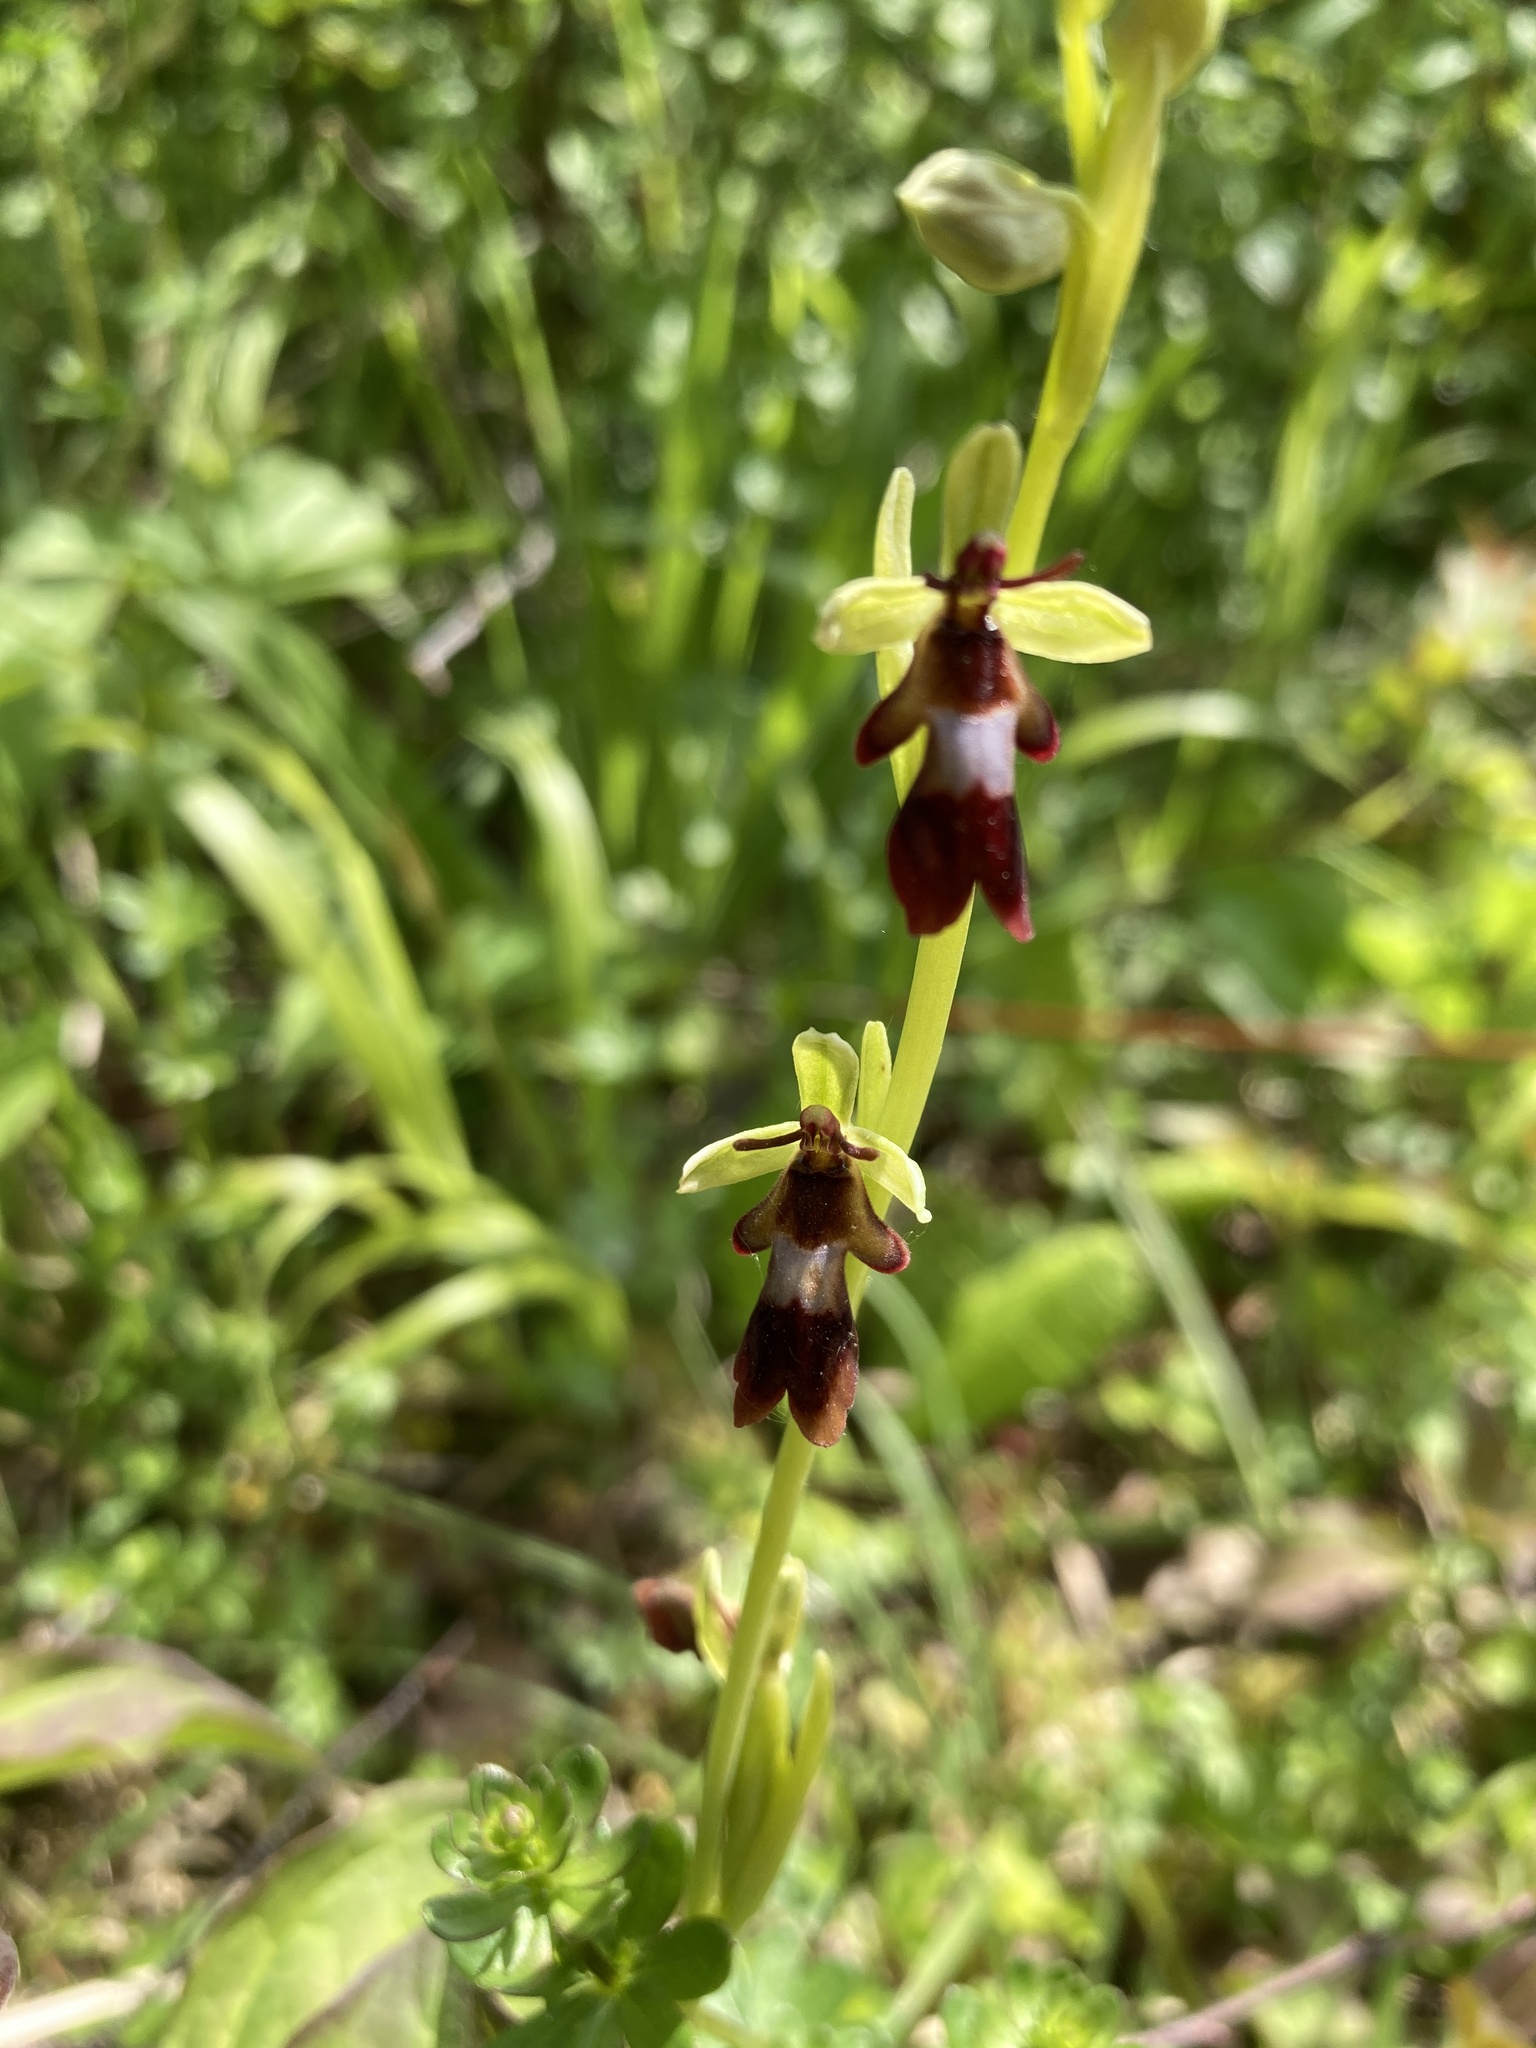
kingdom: Plantae
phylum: Tracheophyta
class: Liliopsida
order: Asparagales
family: Orchidaceae
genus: Ophrys
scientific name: Ophrys insectifera
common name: Fly orchid
